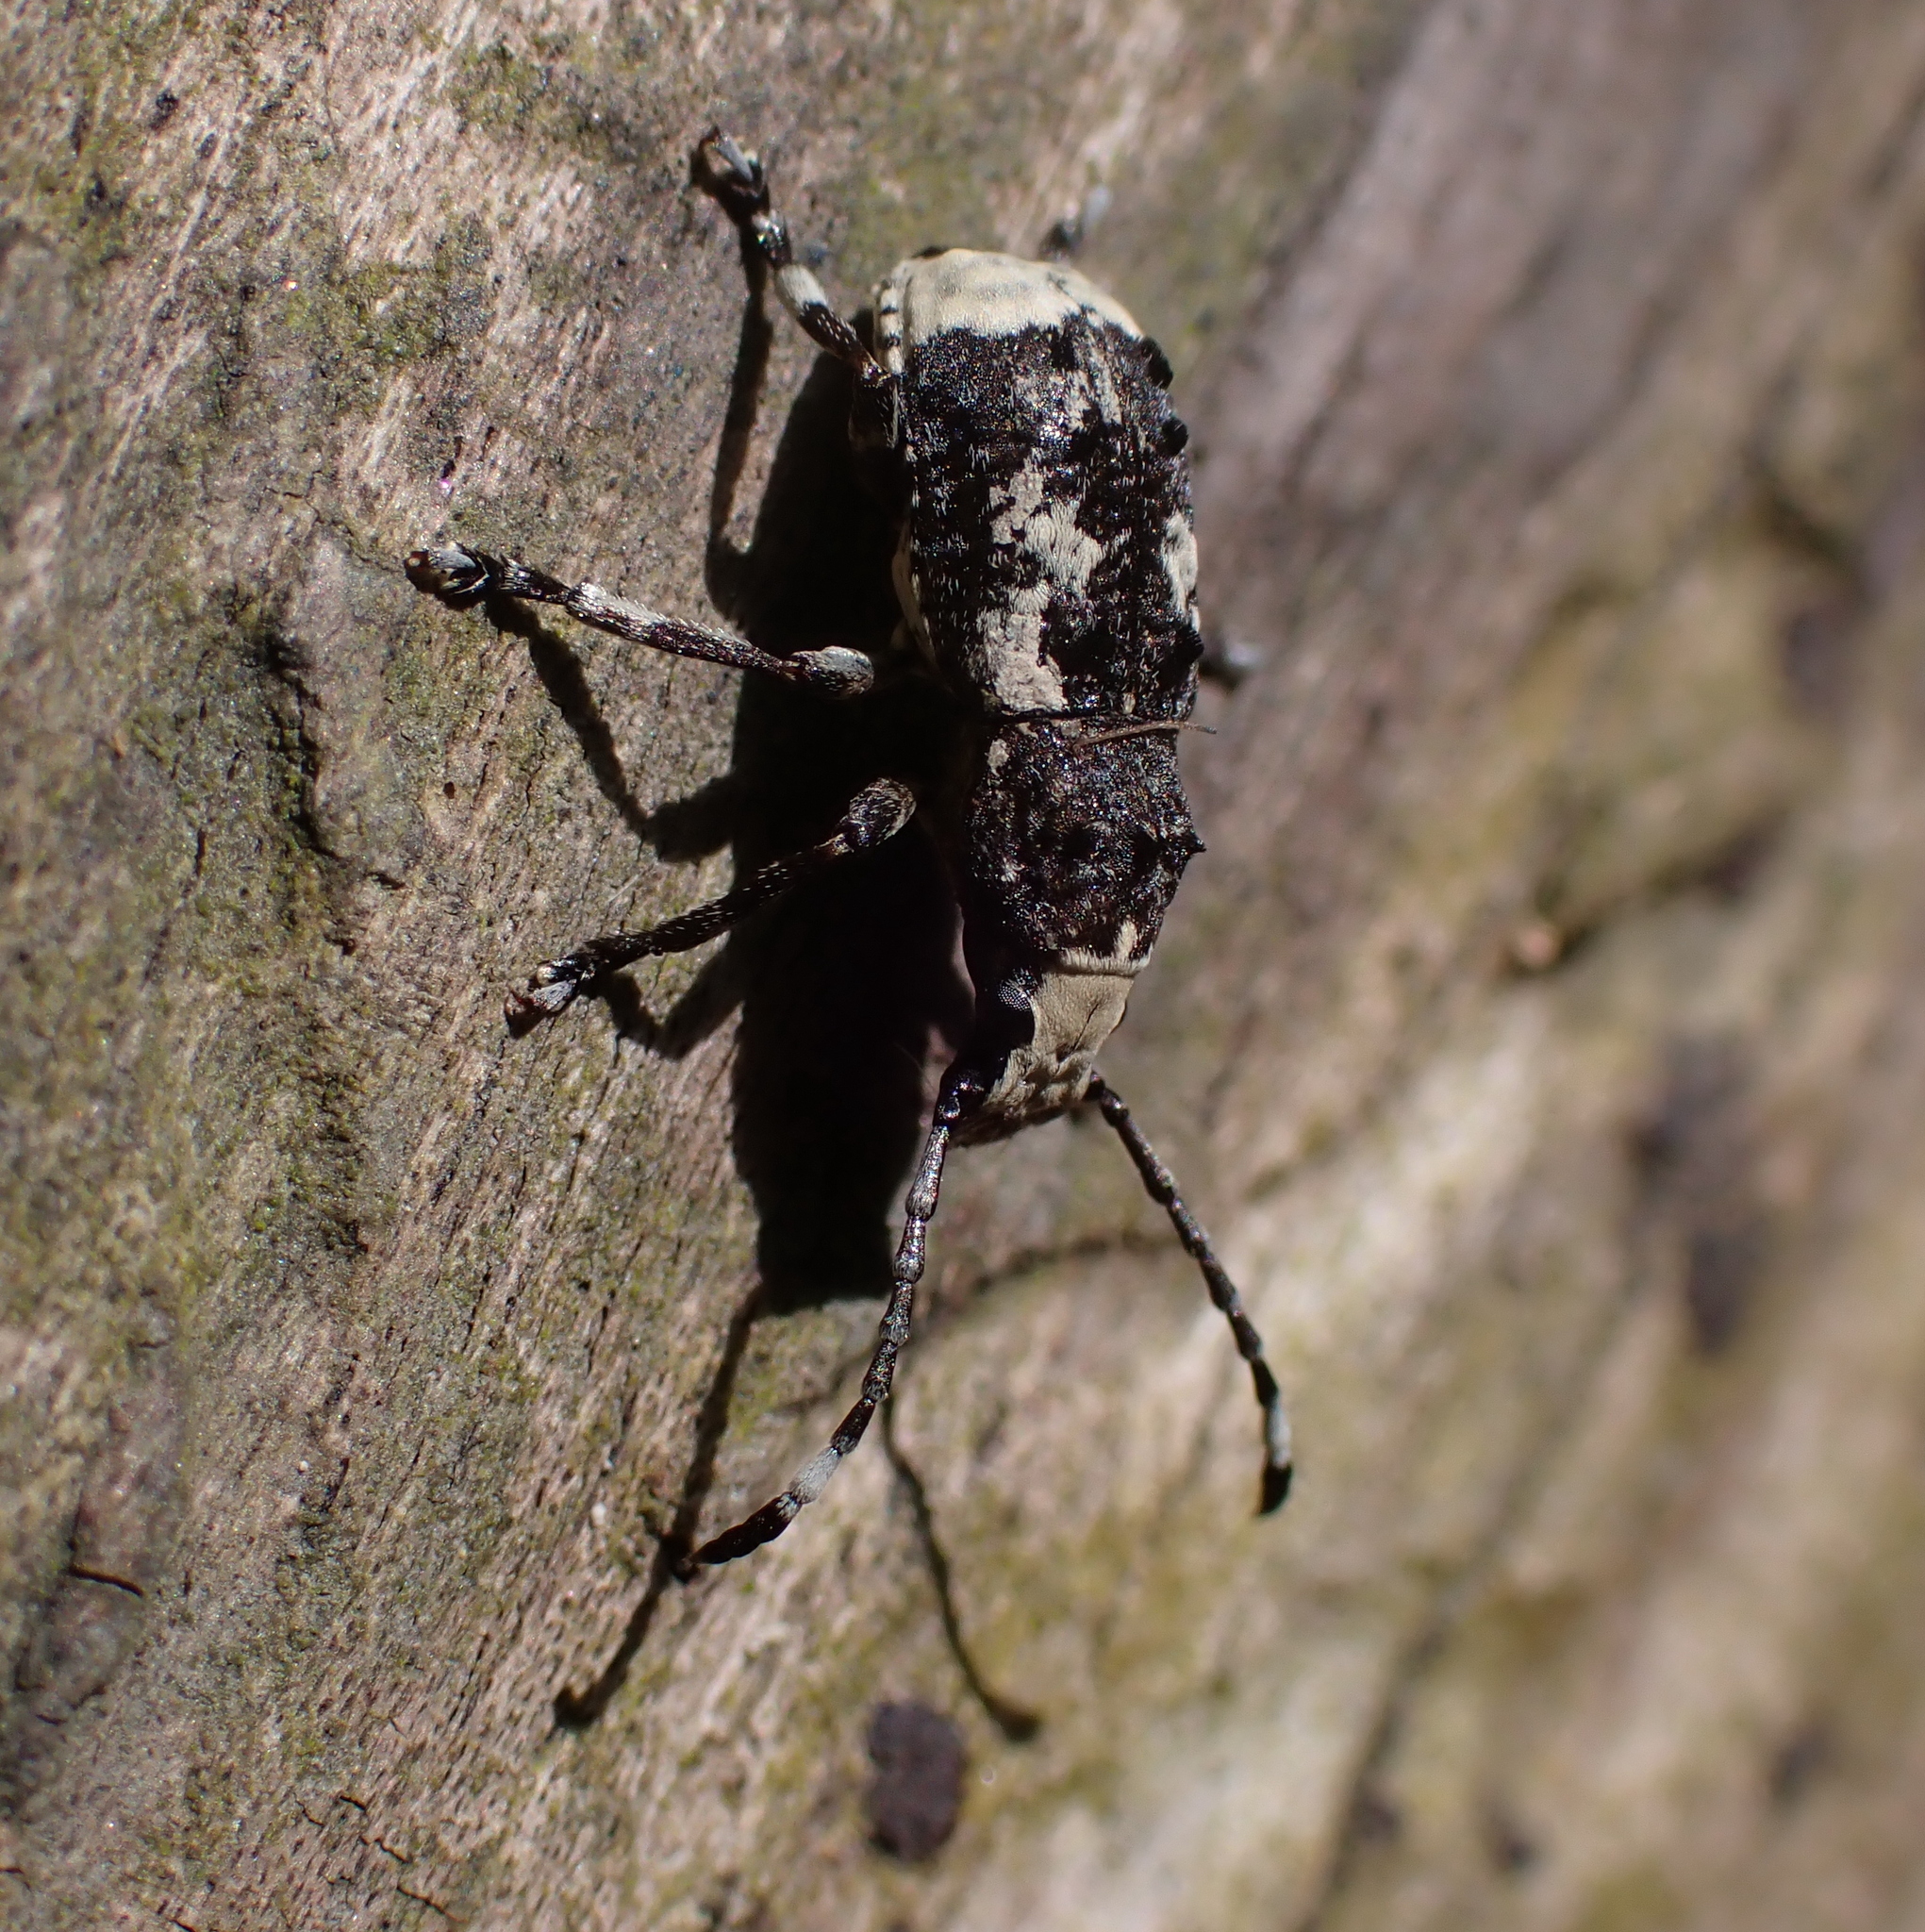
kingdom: Animalia
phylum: Arthropoda
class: Insecta
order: Coleoptera
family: Anthribidae
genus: Platystomos
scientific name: Platystomos albinus
